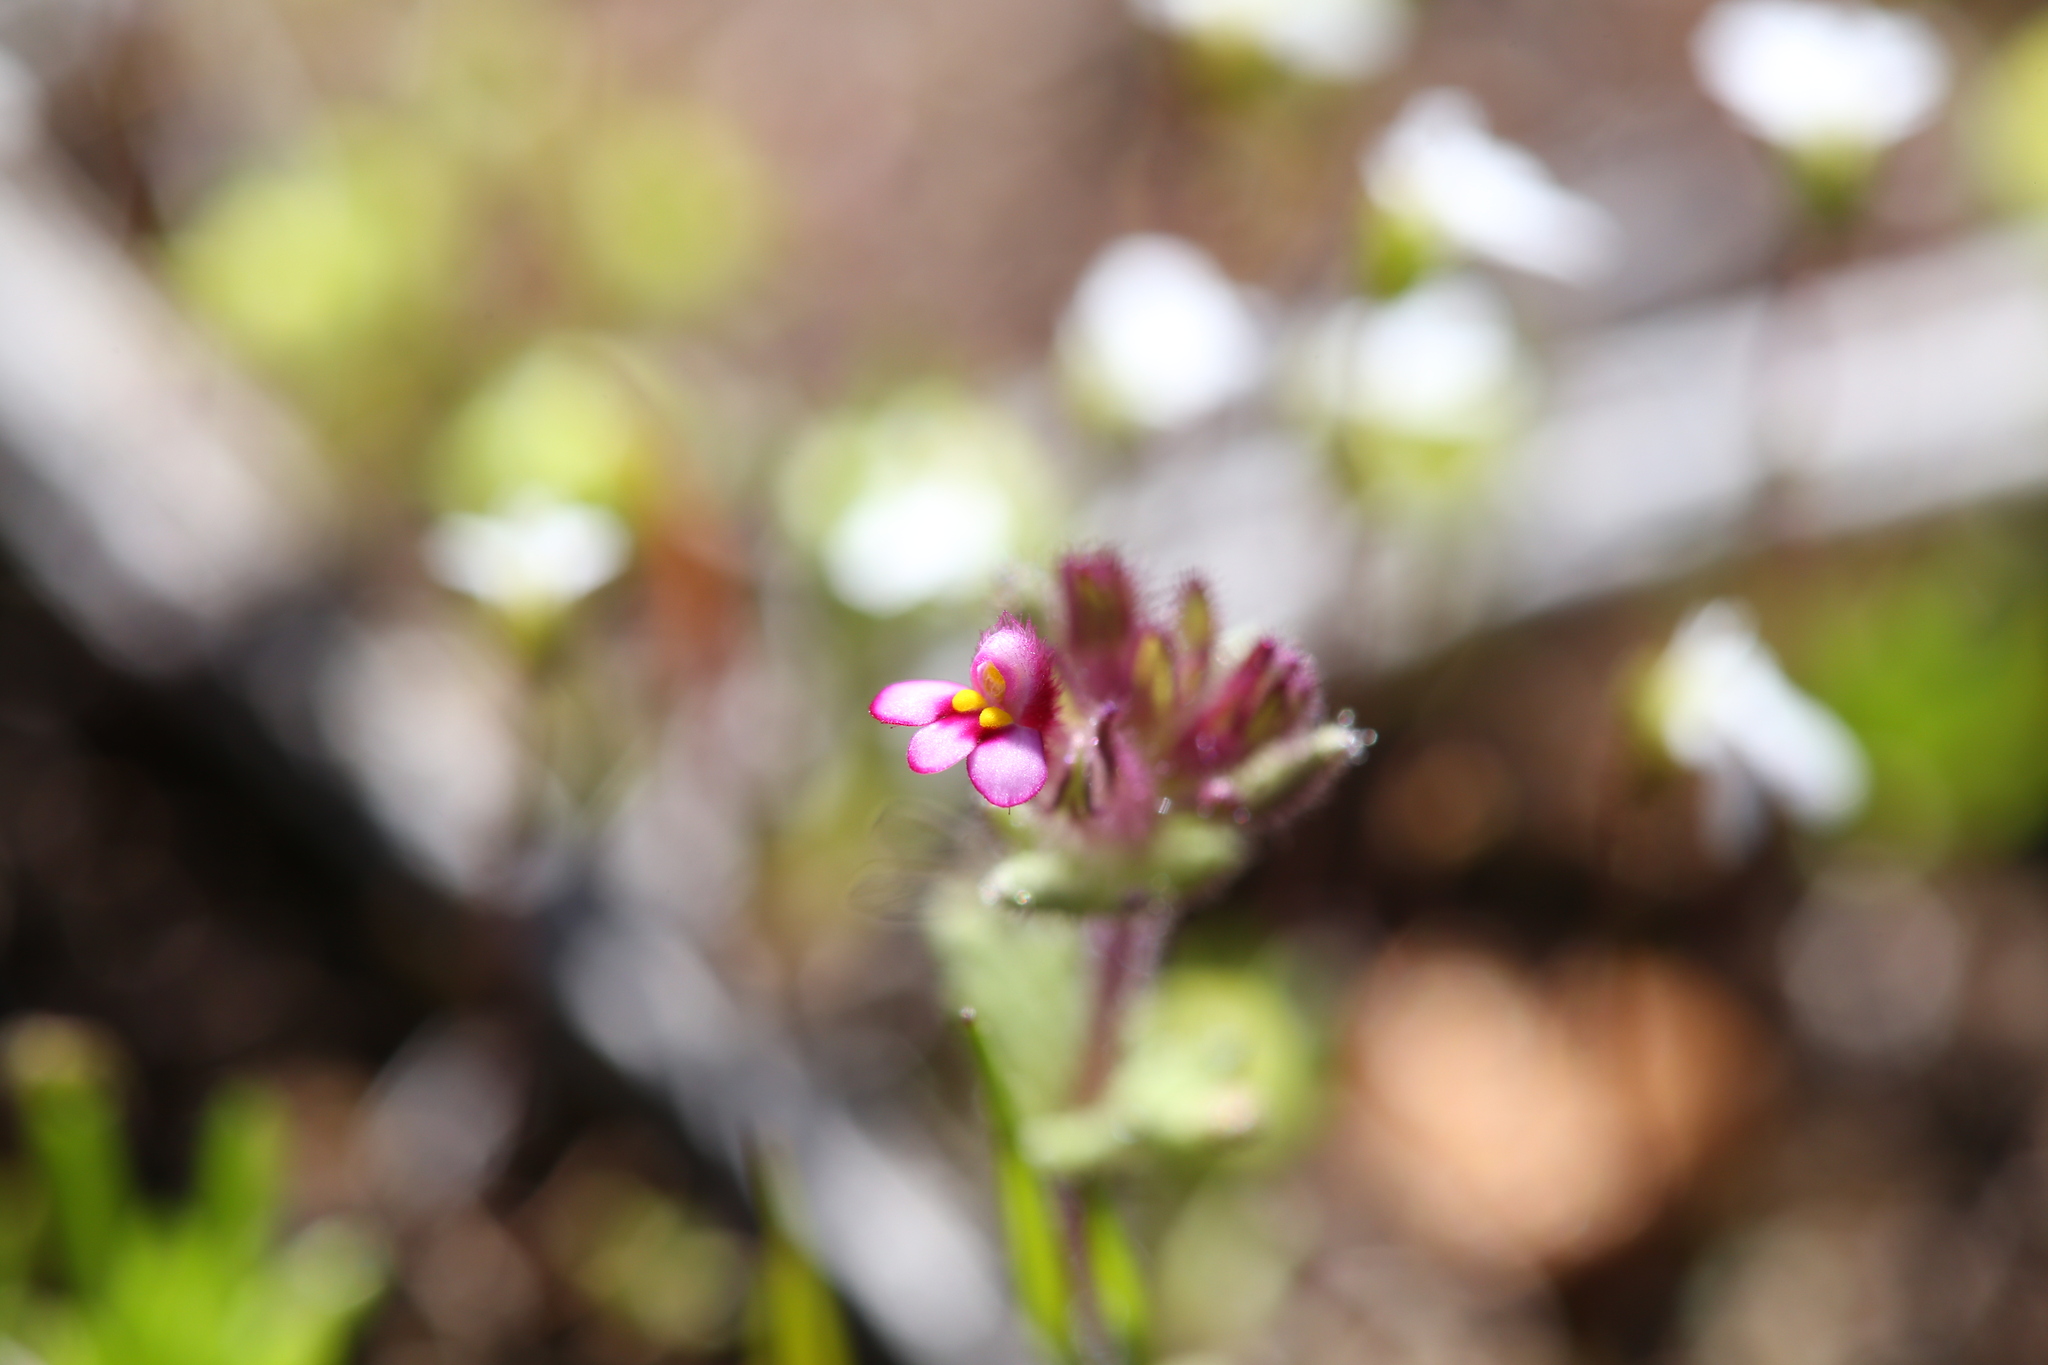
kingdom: Plantae
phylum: Tracheophyta
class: Magnoliopsida
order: Lamiales
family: Orobanchaceae
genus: Parentucellia
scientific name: Parentucellia latifolia
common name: Broadleaf glandweed
